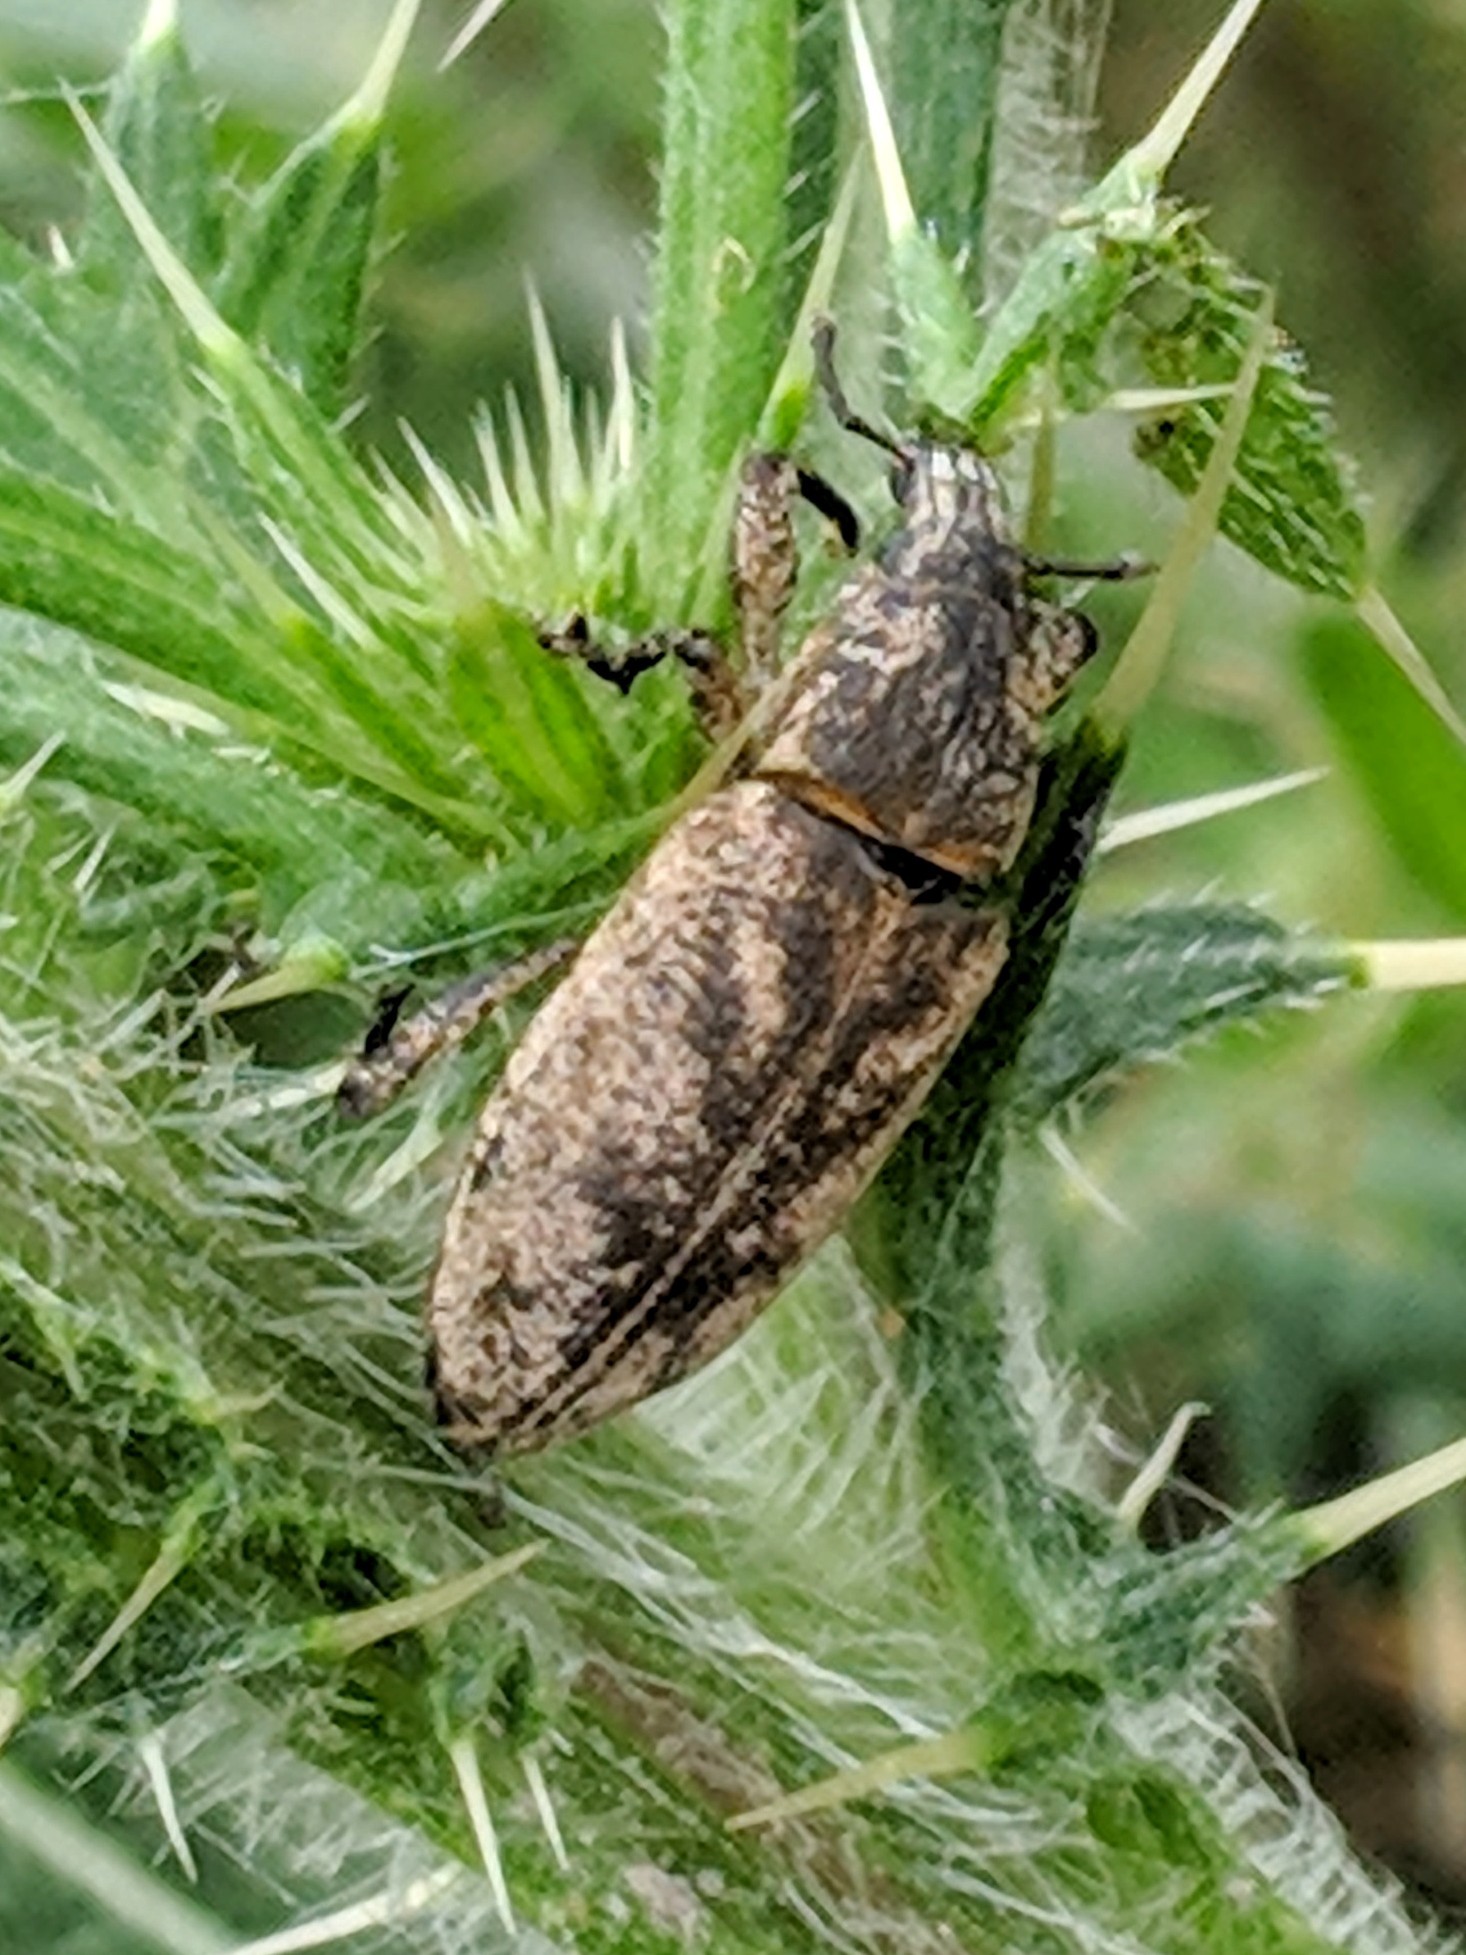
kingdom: Animalia
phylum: Arthropoda
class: Insecta
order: Coleoptera
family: Curculionidae
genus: Cleonis
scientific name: Cleonis pigra
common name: Large thistle weevil
